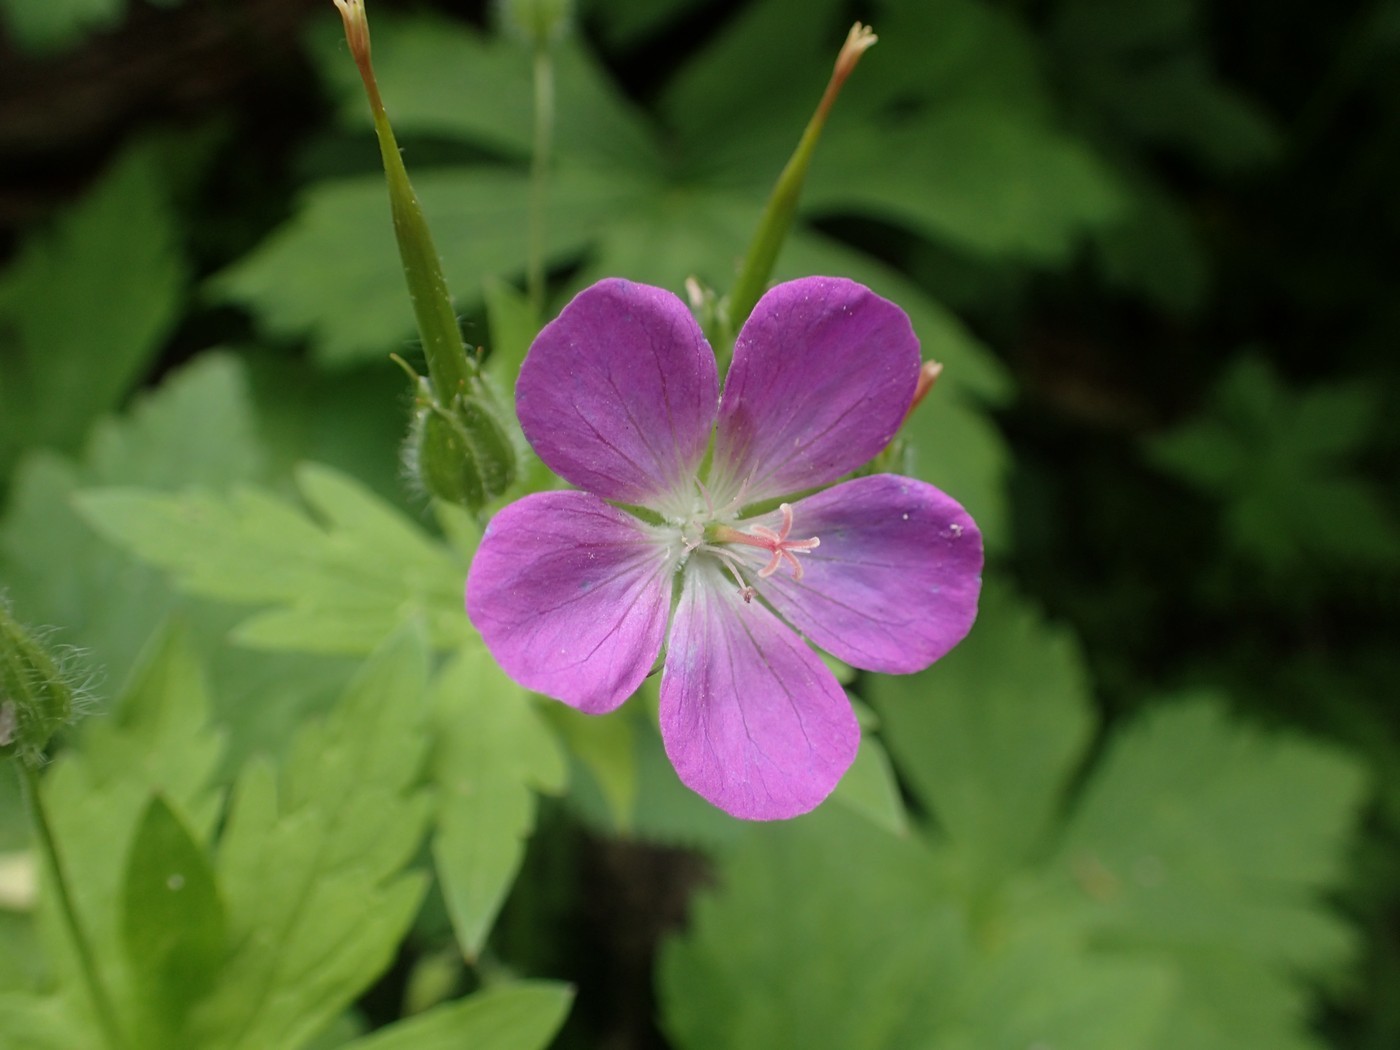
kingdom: Plantae
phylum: Tracheophyta
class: Magnoliopsida
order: Geraniales
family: Geraniaceae
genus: Geranium
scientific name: Geranium maculatum
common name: Spotted geranium
